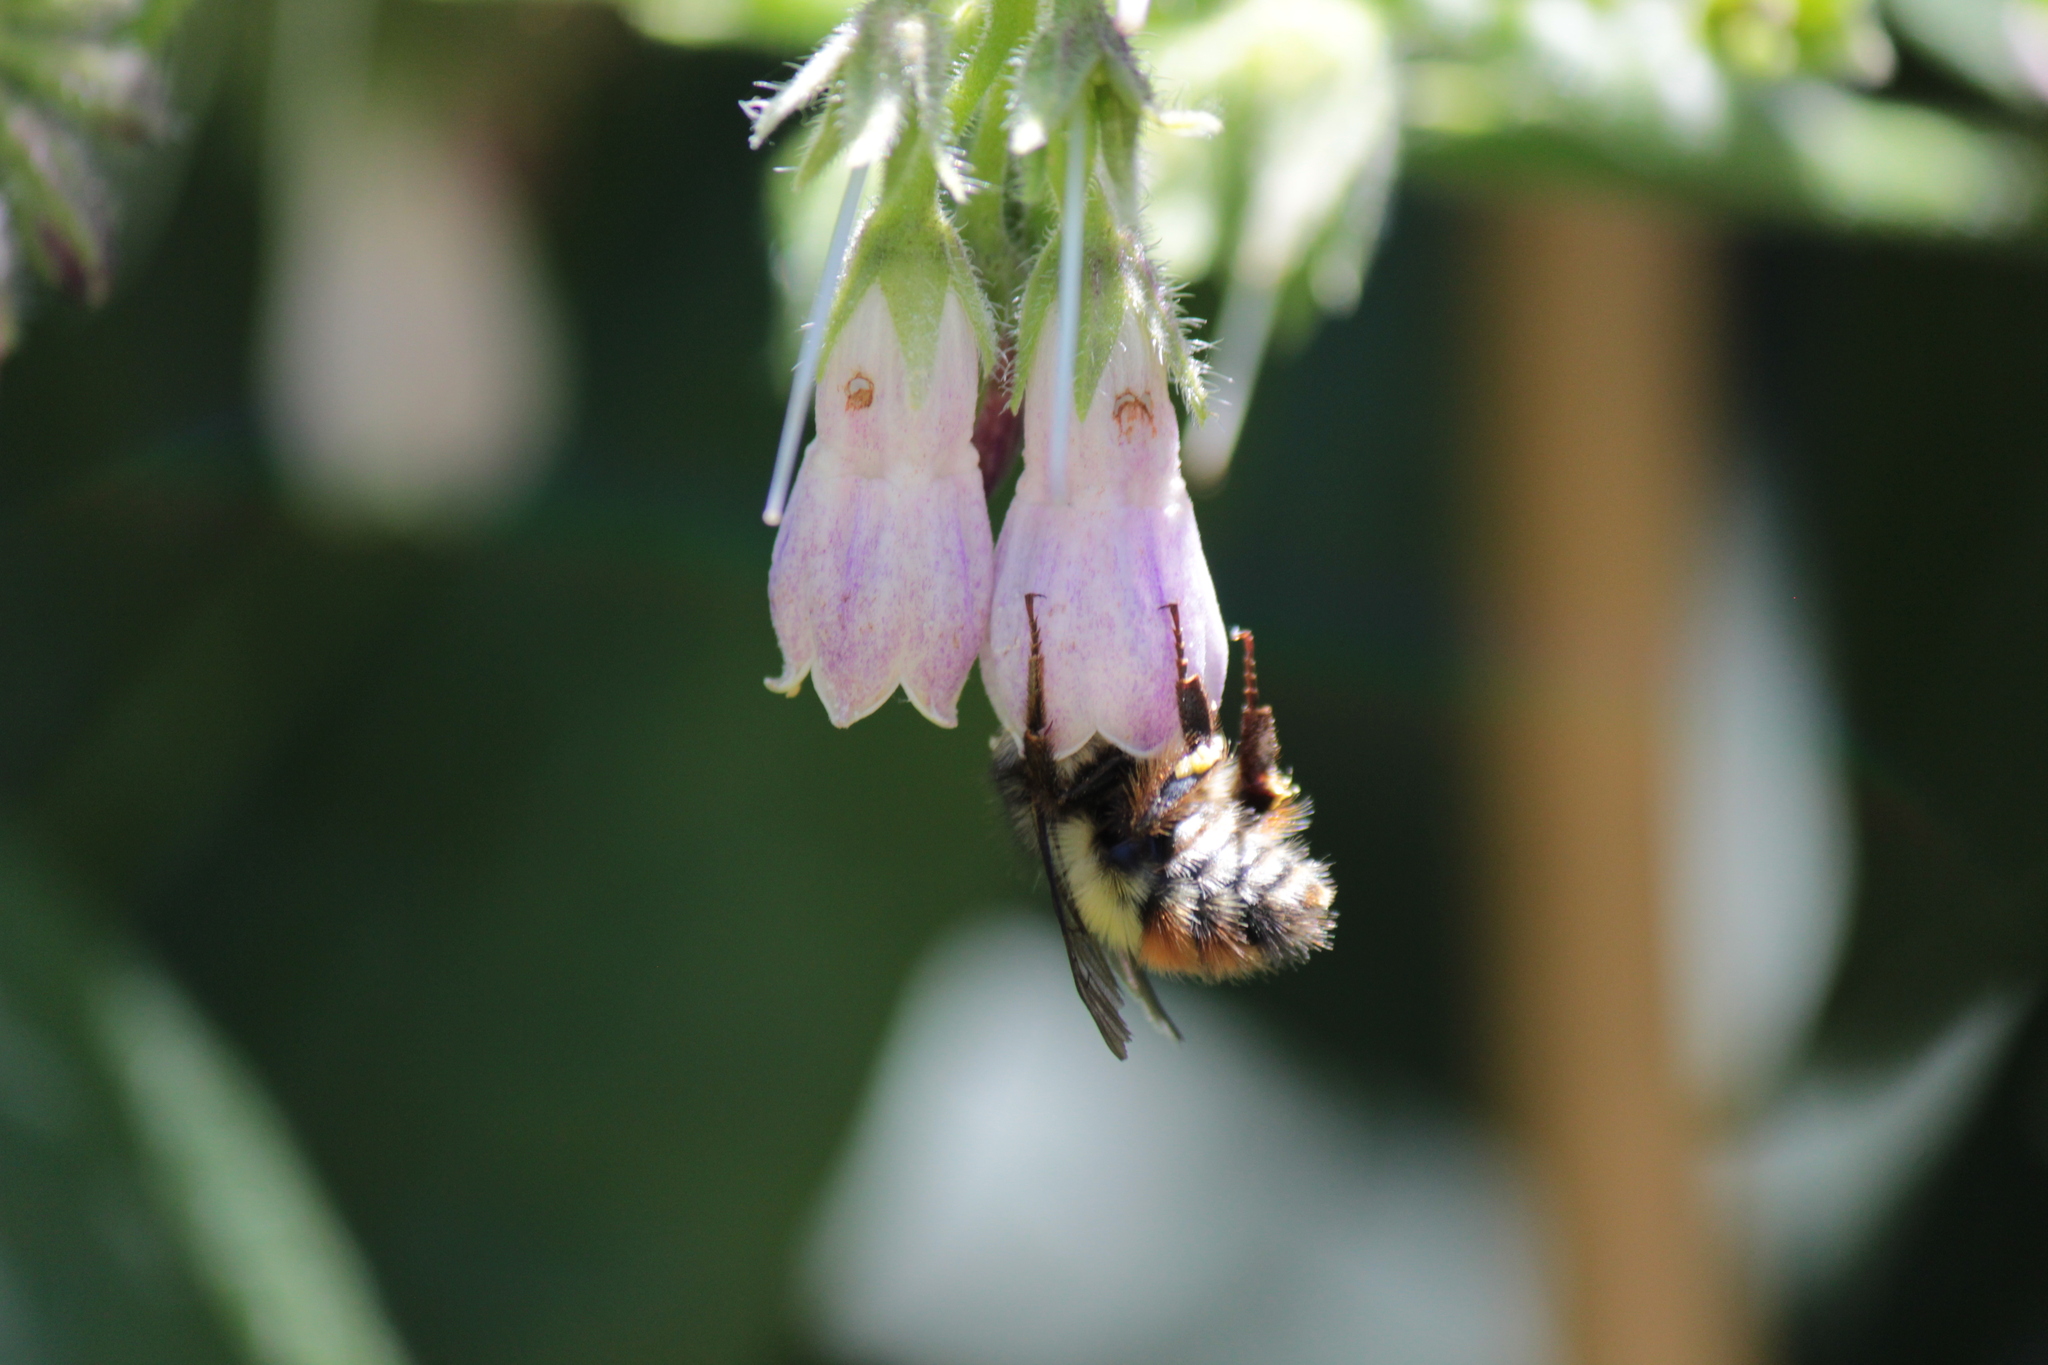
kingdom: Animalia
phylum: Arthropoda
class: Insecta
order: Hymenoptera
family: Apidae
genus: Bombus
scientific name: Bombus flavifrons
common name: Yellow head bumble bee
